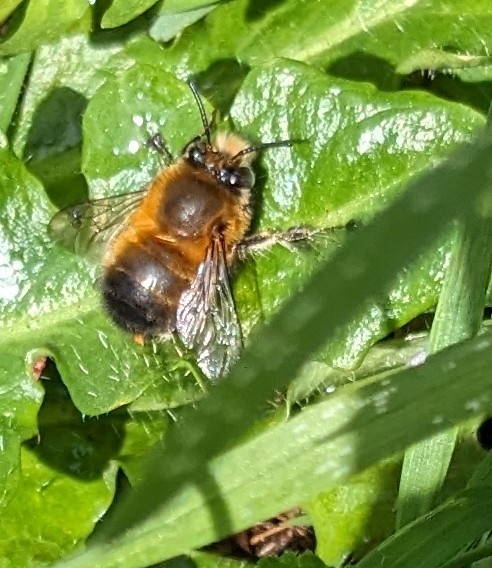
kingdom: Animalia
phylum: Arthropoda
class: Insecta
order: Hymenoptera
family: Apidae
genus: Anthophora
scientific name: Anthophora plumipes
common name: Hairy-footed flower bee
